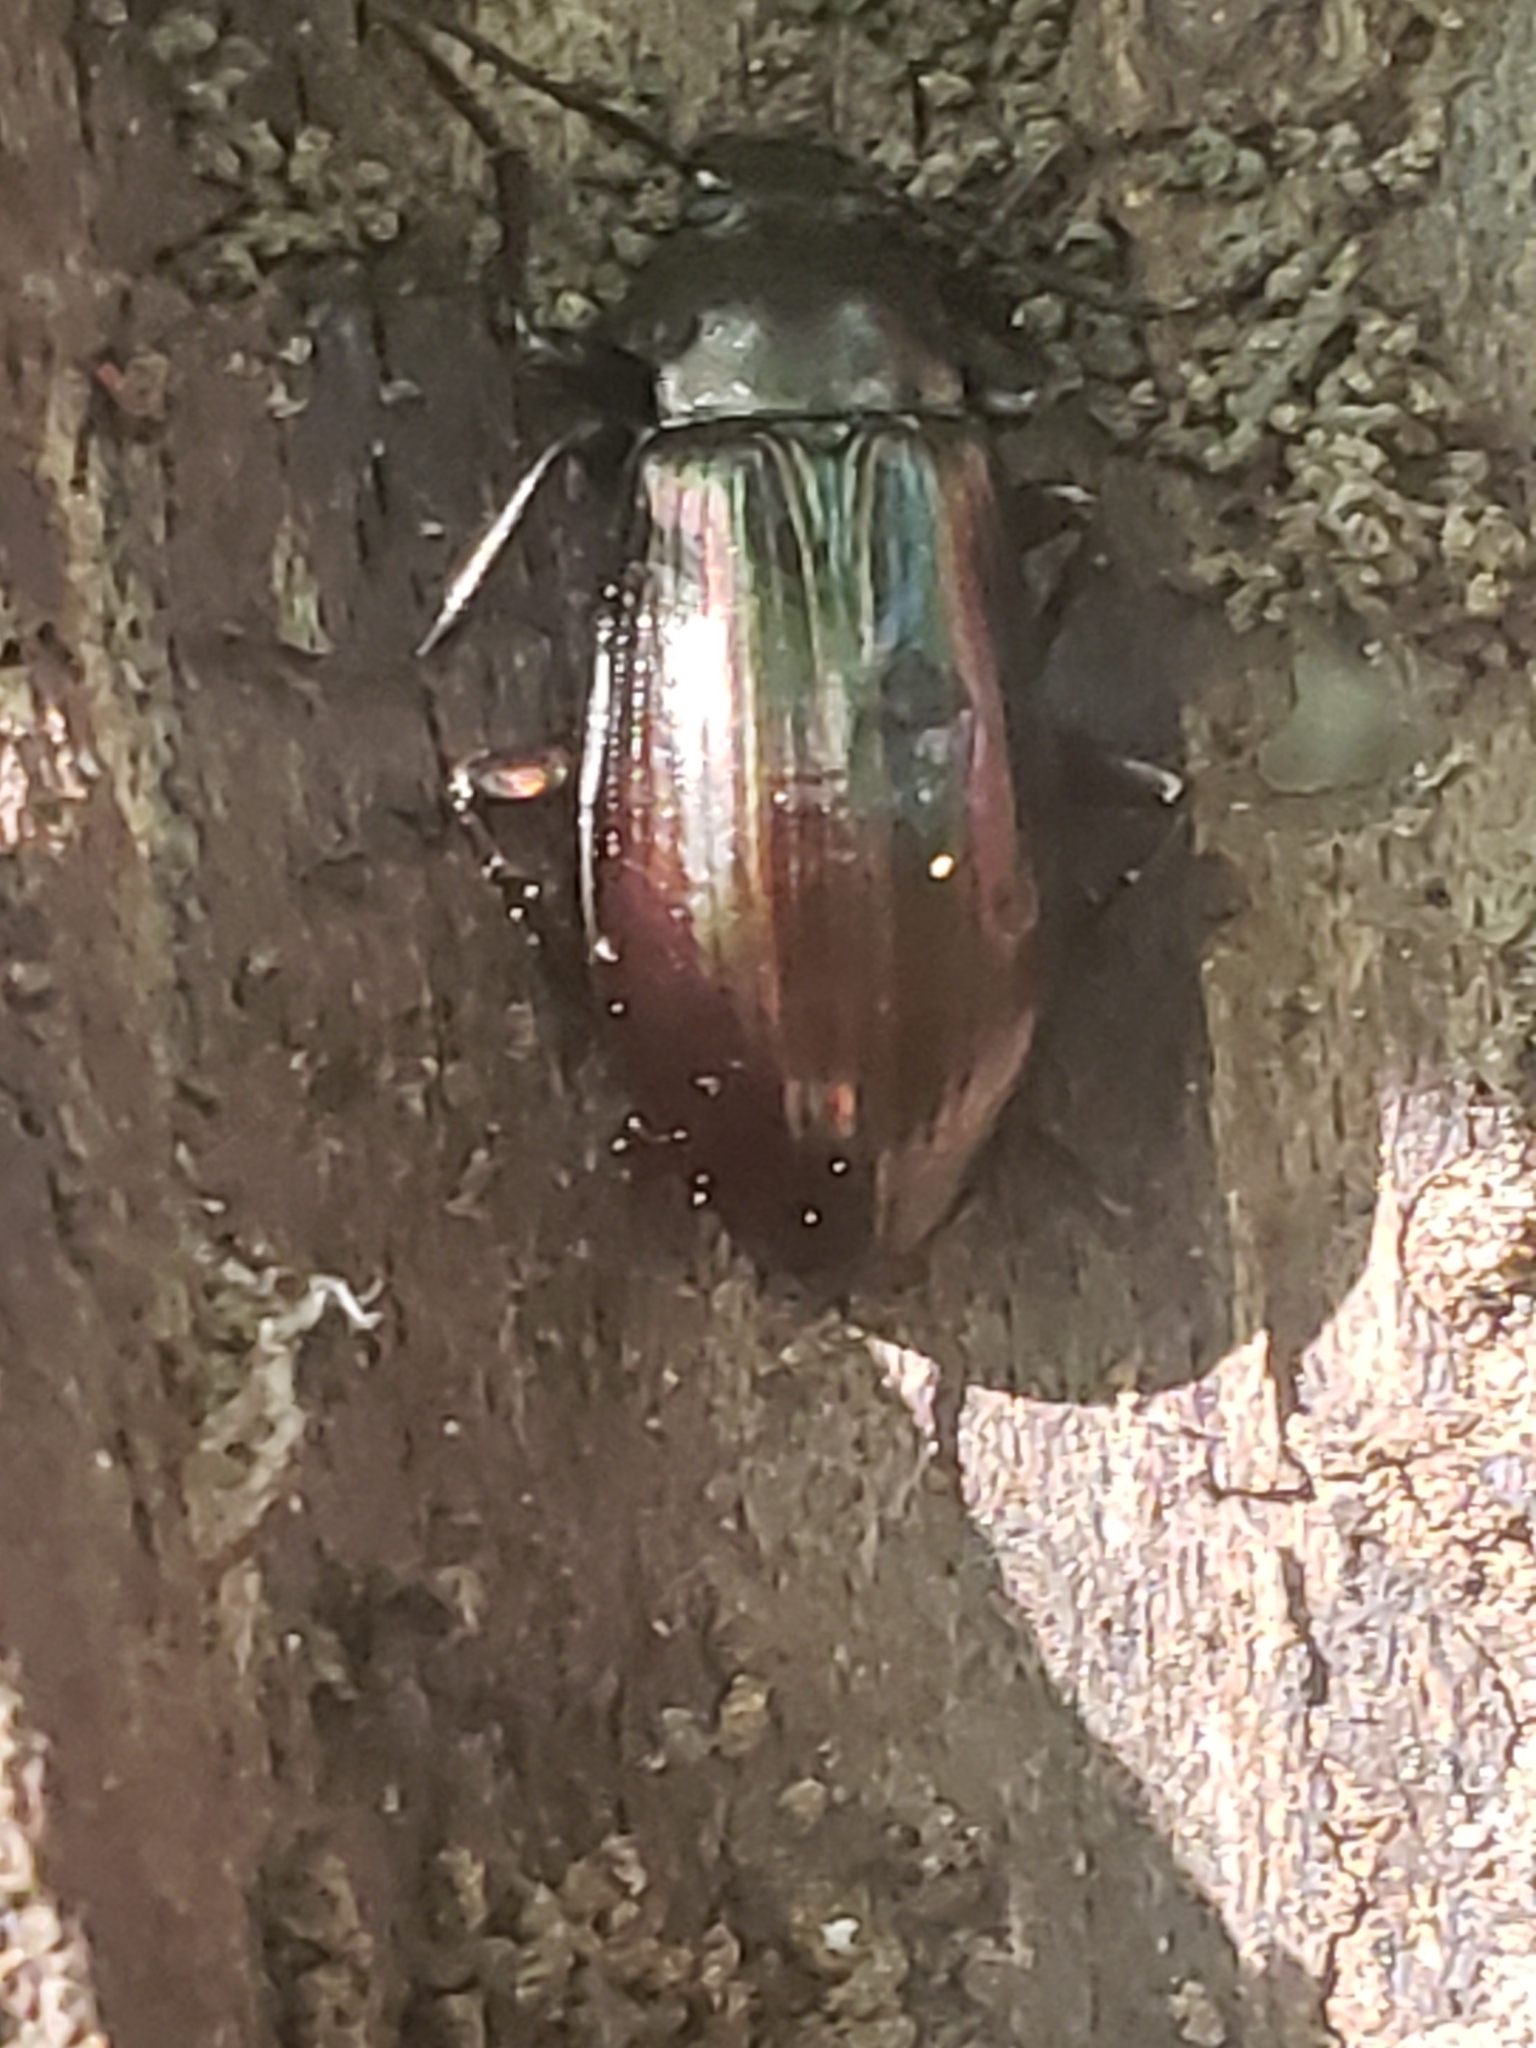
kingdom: Animalia
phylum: Arthropoda
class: Insecta
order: Coleoptera
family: Tenebrionidae
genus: Tarpela
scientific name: Tarpela micans
